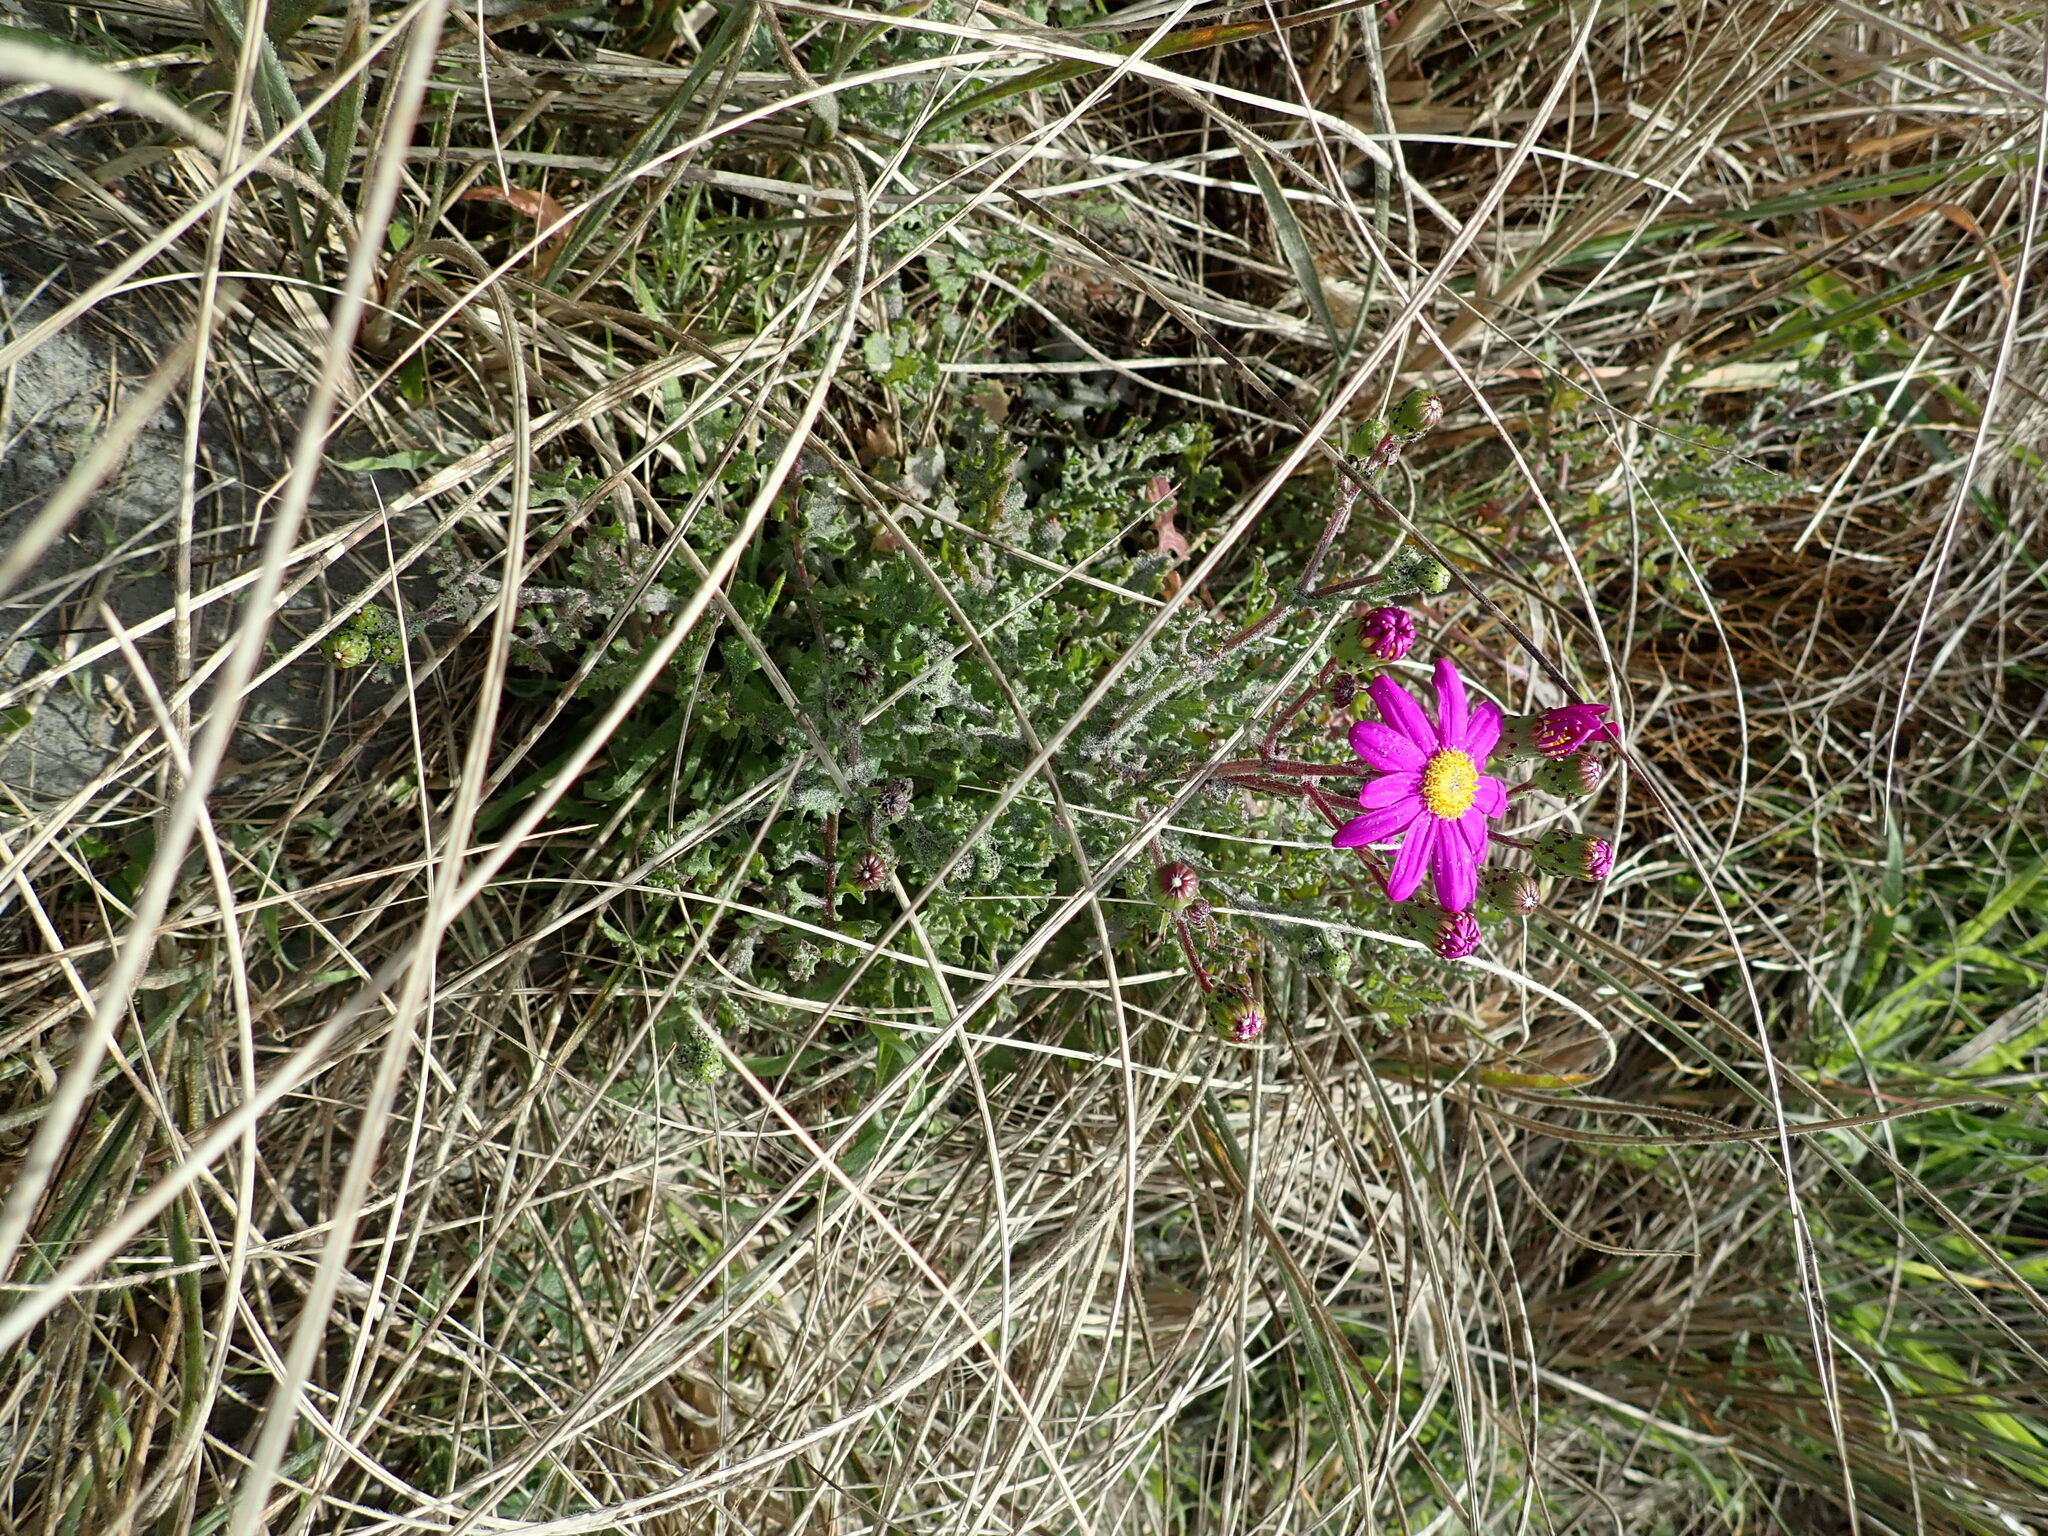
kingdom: Plantae
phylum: Tracheophyta
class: Magnoliopsida
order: Asterales
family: Asteraceae
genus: Senecio
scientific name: Senecio elegans
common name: Purple groundsel
